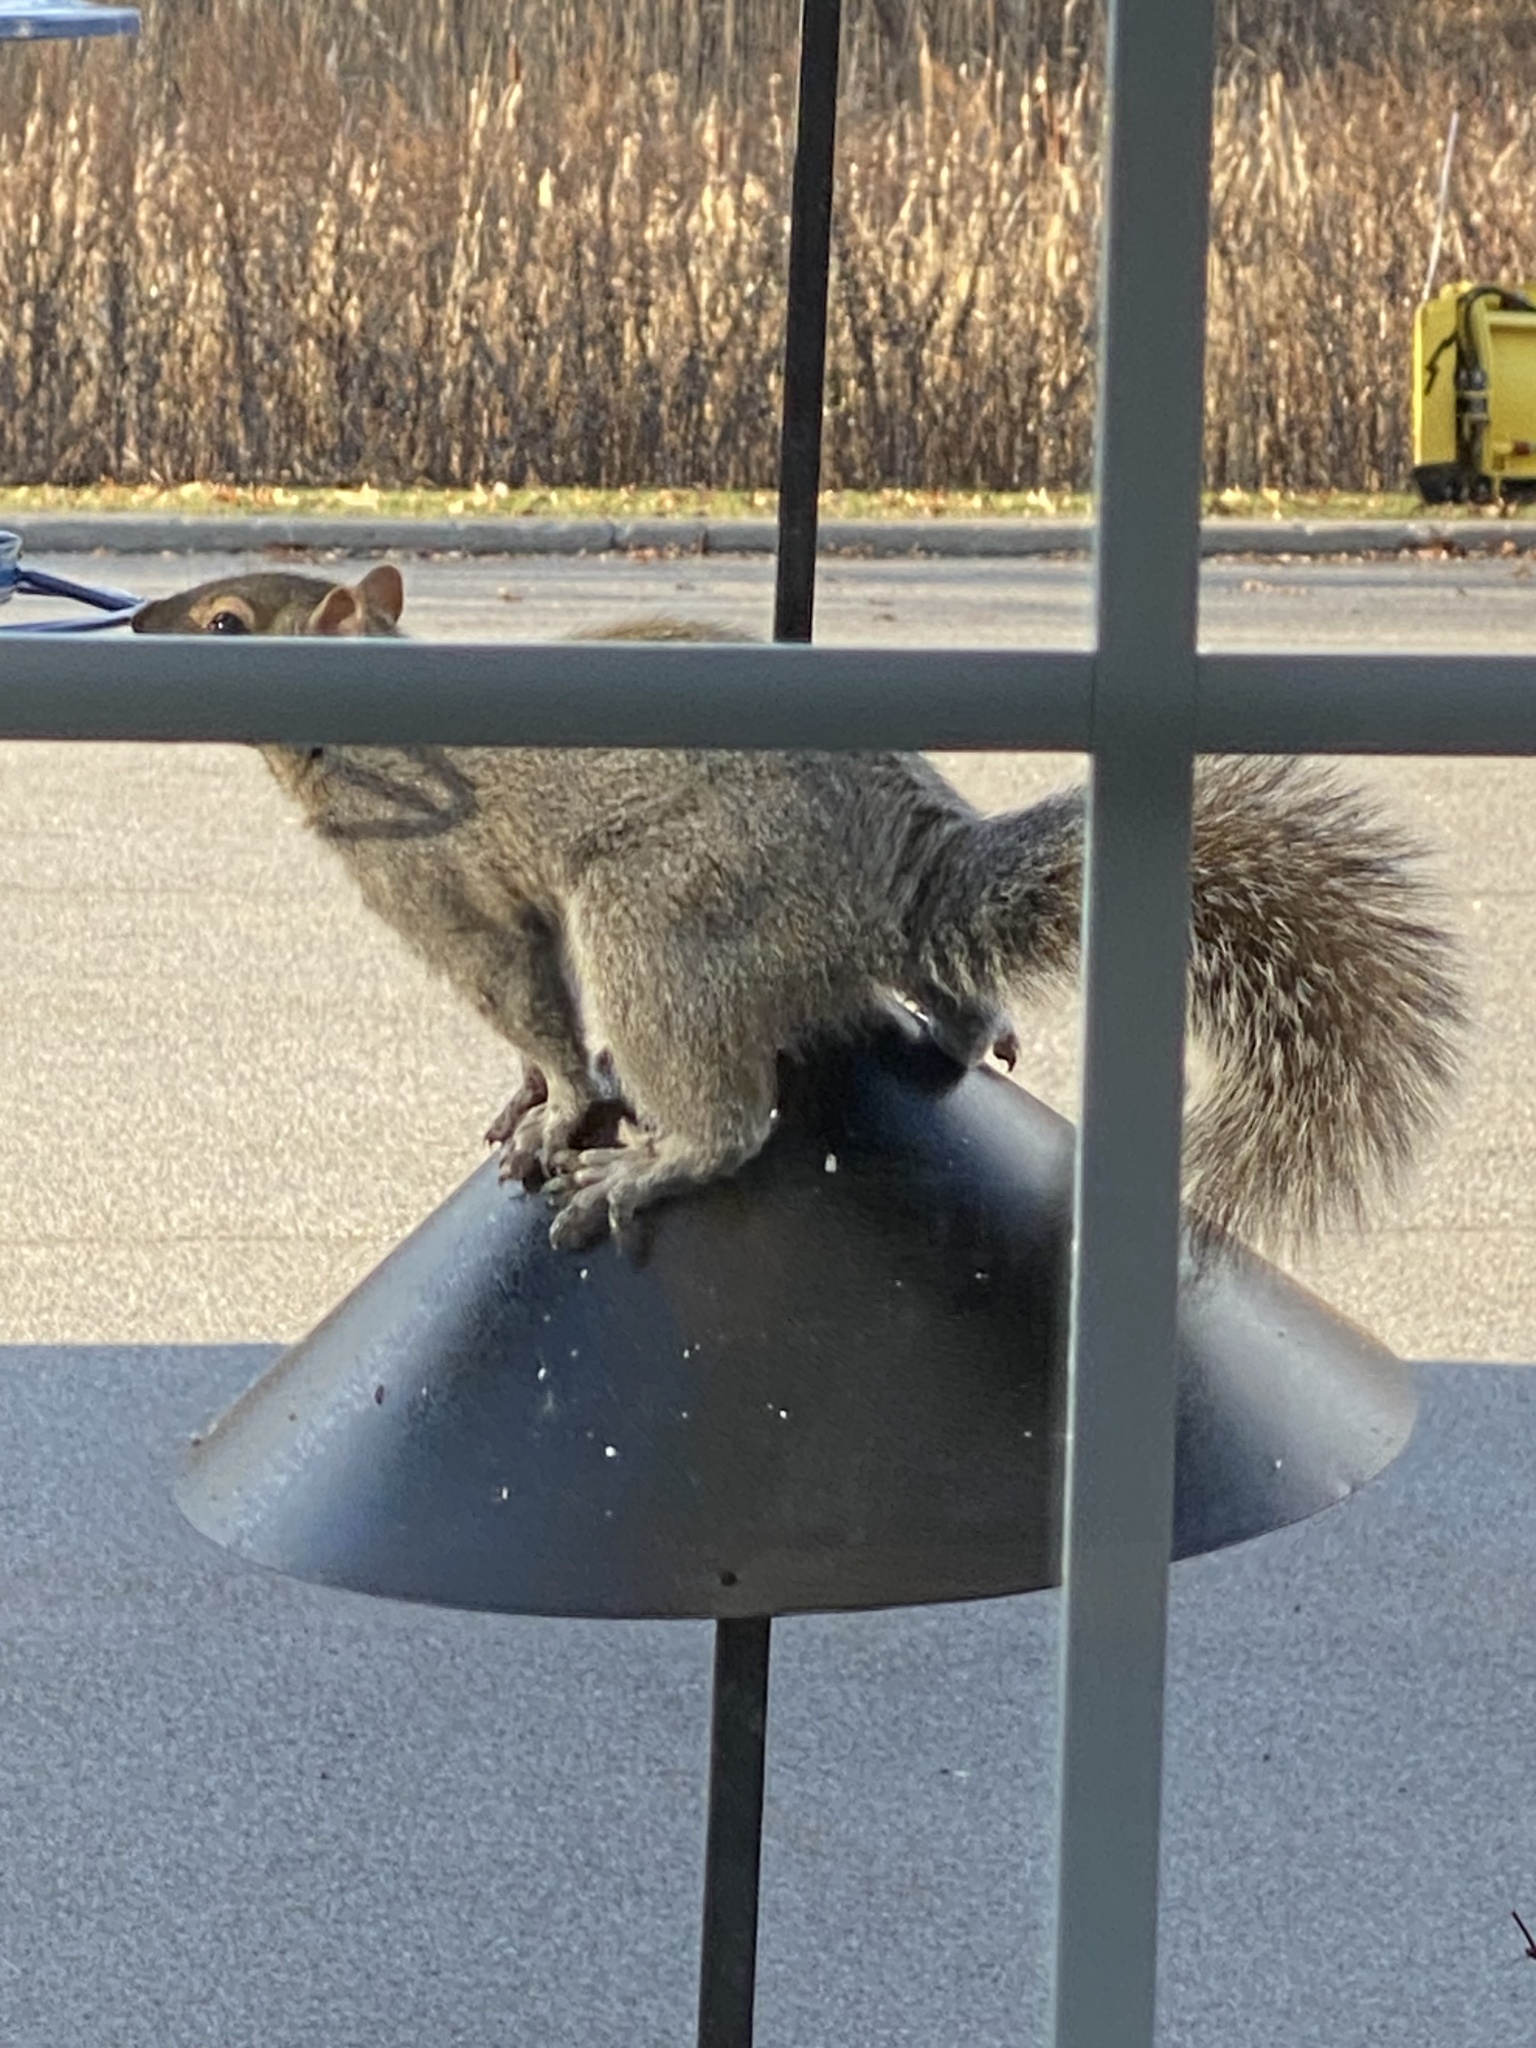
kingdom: Animalia
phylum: Chordata
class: Mammalia
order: Rodentia
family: Sciuridae
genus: Sciurus
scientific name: Sciurus carolinensis
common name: Eastern gray squirrel
